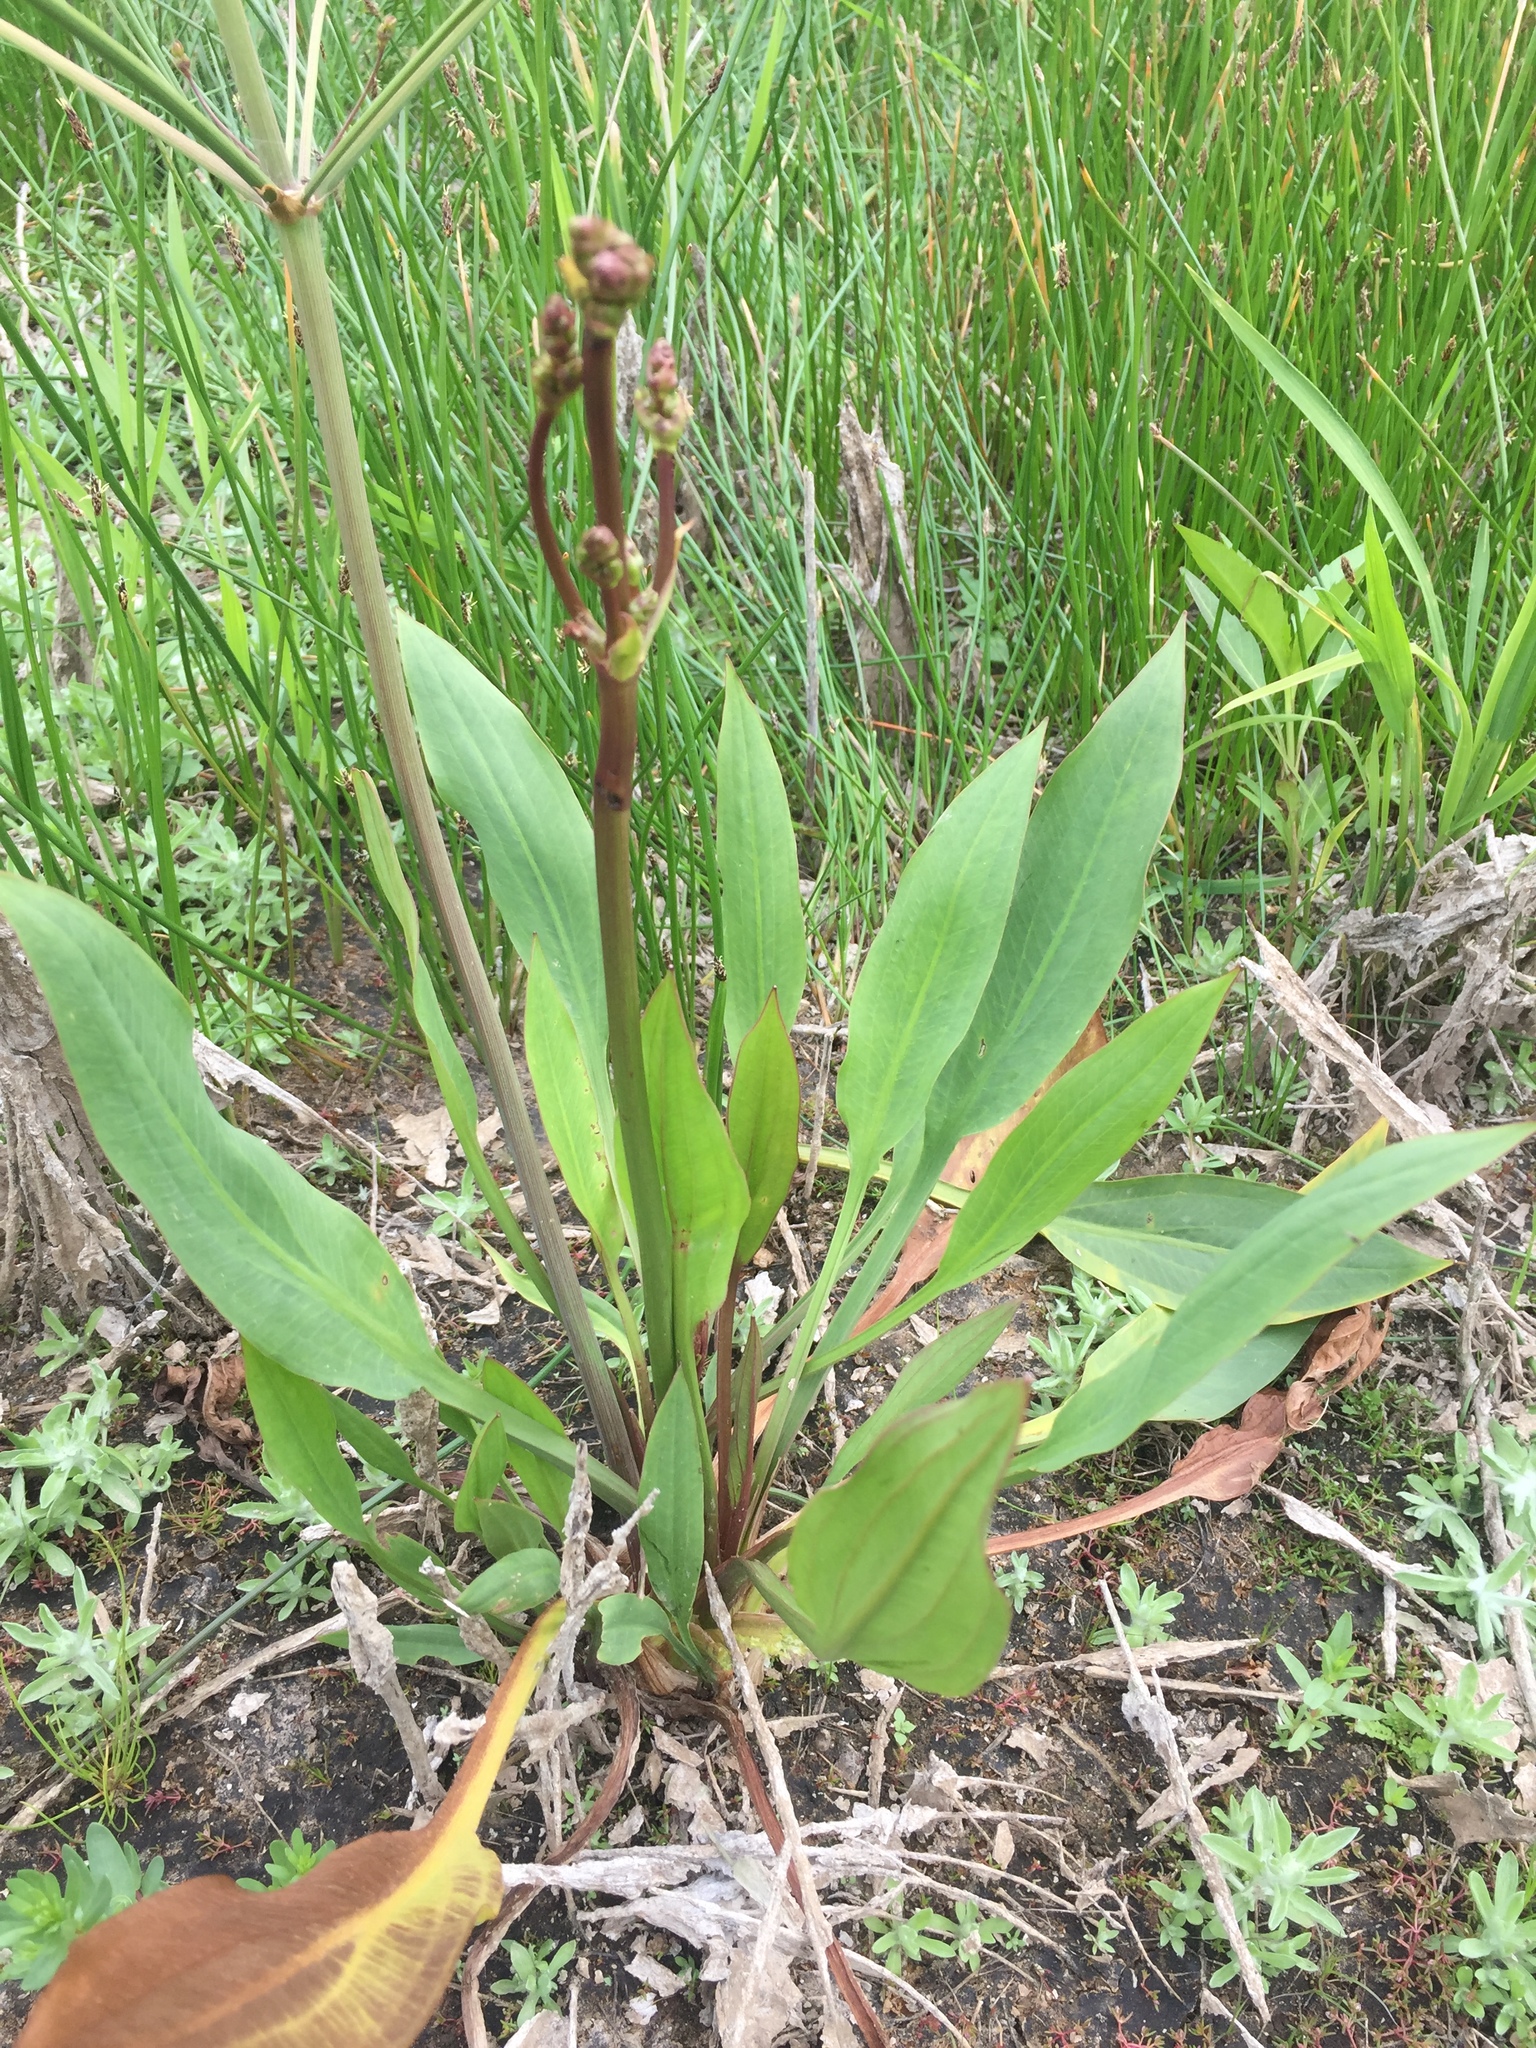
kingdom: Plantae
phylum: Tracheophyta
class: Liliopsida
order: Alismatales
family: Alismataceae
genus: Alisma
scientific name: Alisma lanceolatum
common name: Narrow-leaved water-plantain
